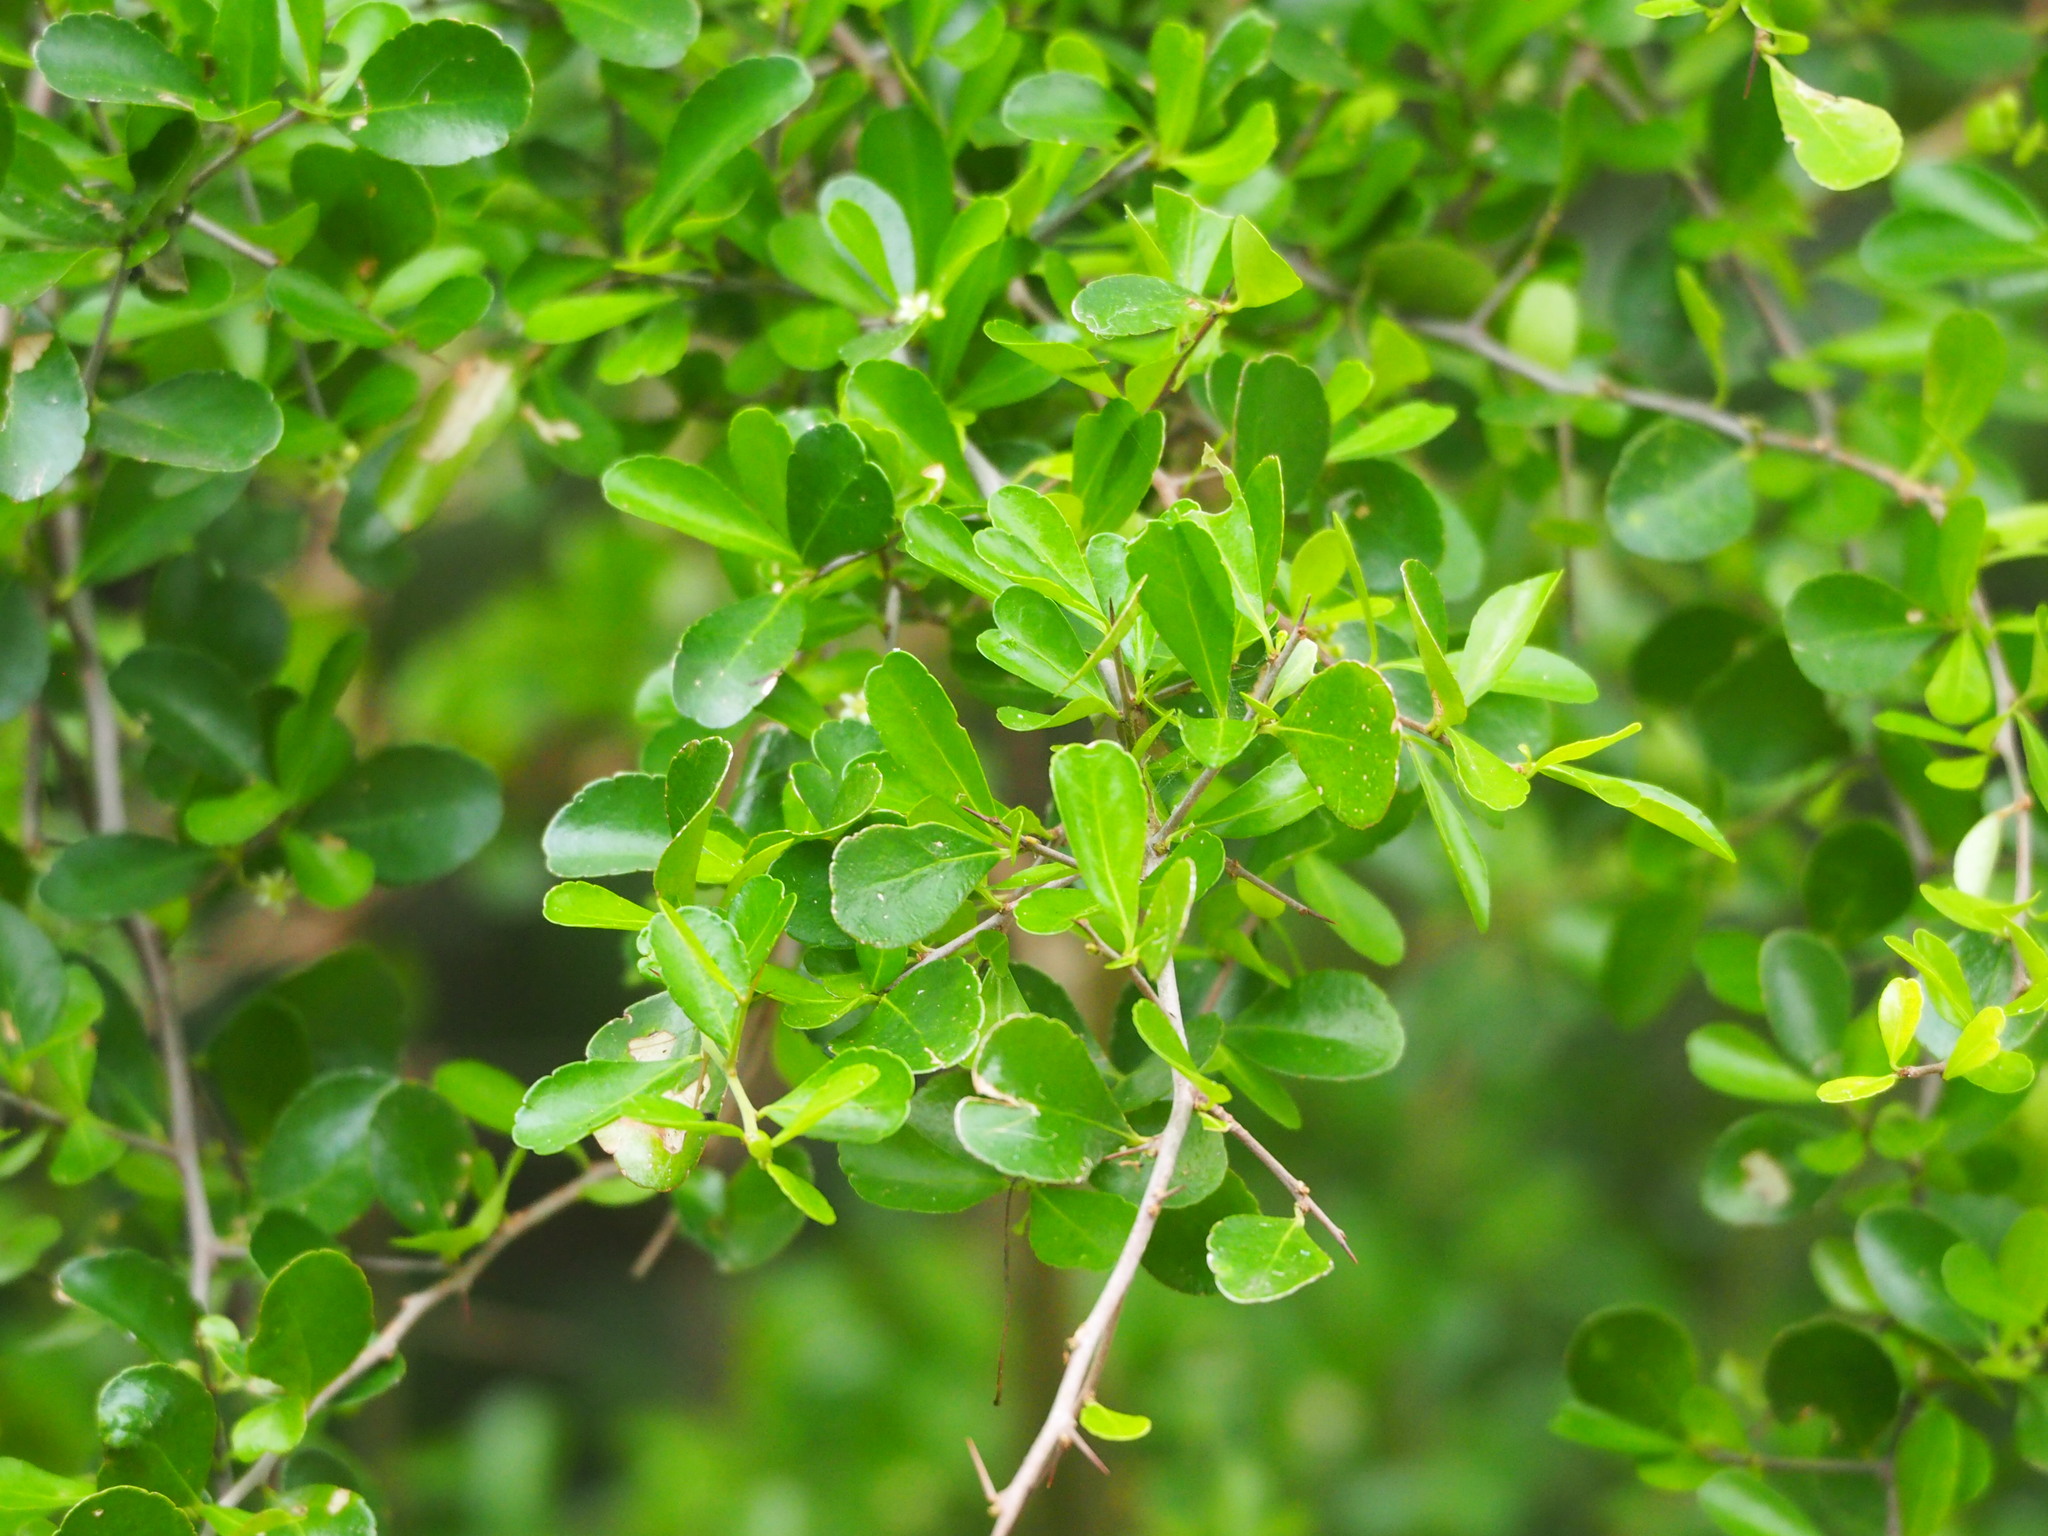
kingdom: Plantae
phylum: Tracheophyta
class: Magnoliopsida
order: Celastrales
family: Celastraceae
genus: Gymnosporia
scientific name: Gymnosporia diversifolia
